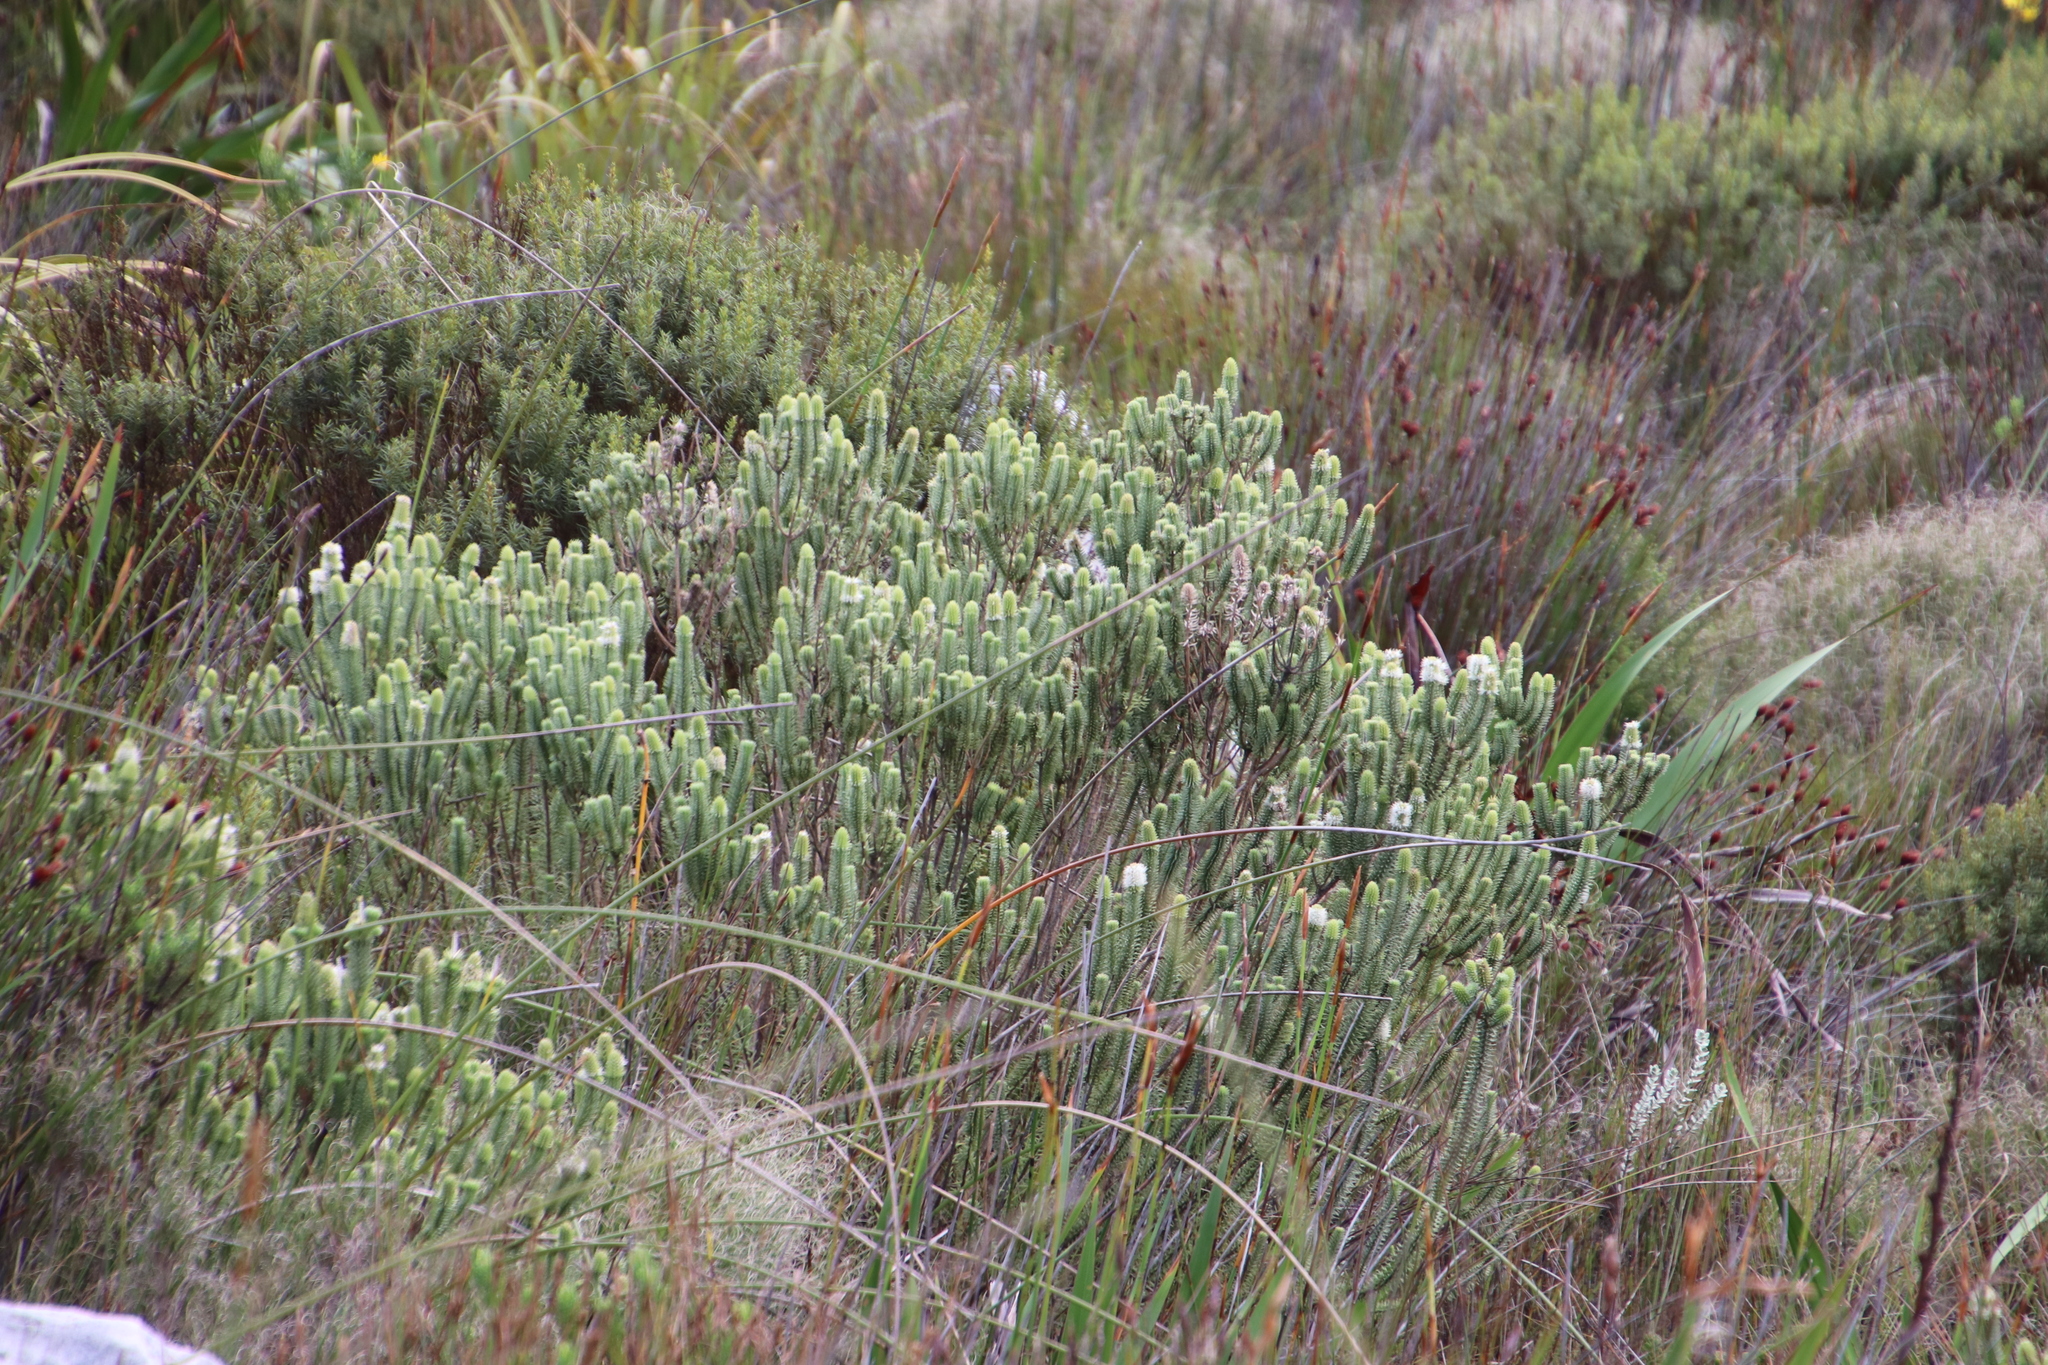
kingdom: Plantae
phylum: Tracheophyta
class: Magnoliopsida
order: Lamiales
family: Stilbaceae
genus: Stilbe
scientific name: Stilbe vestita
